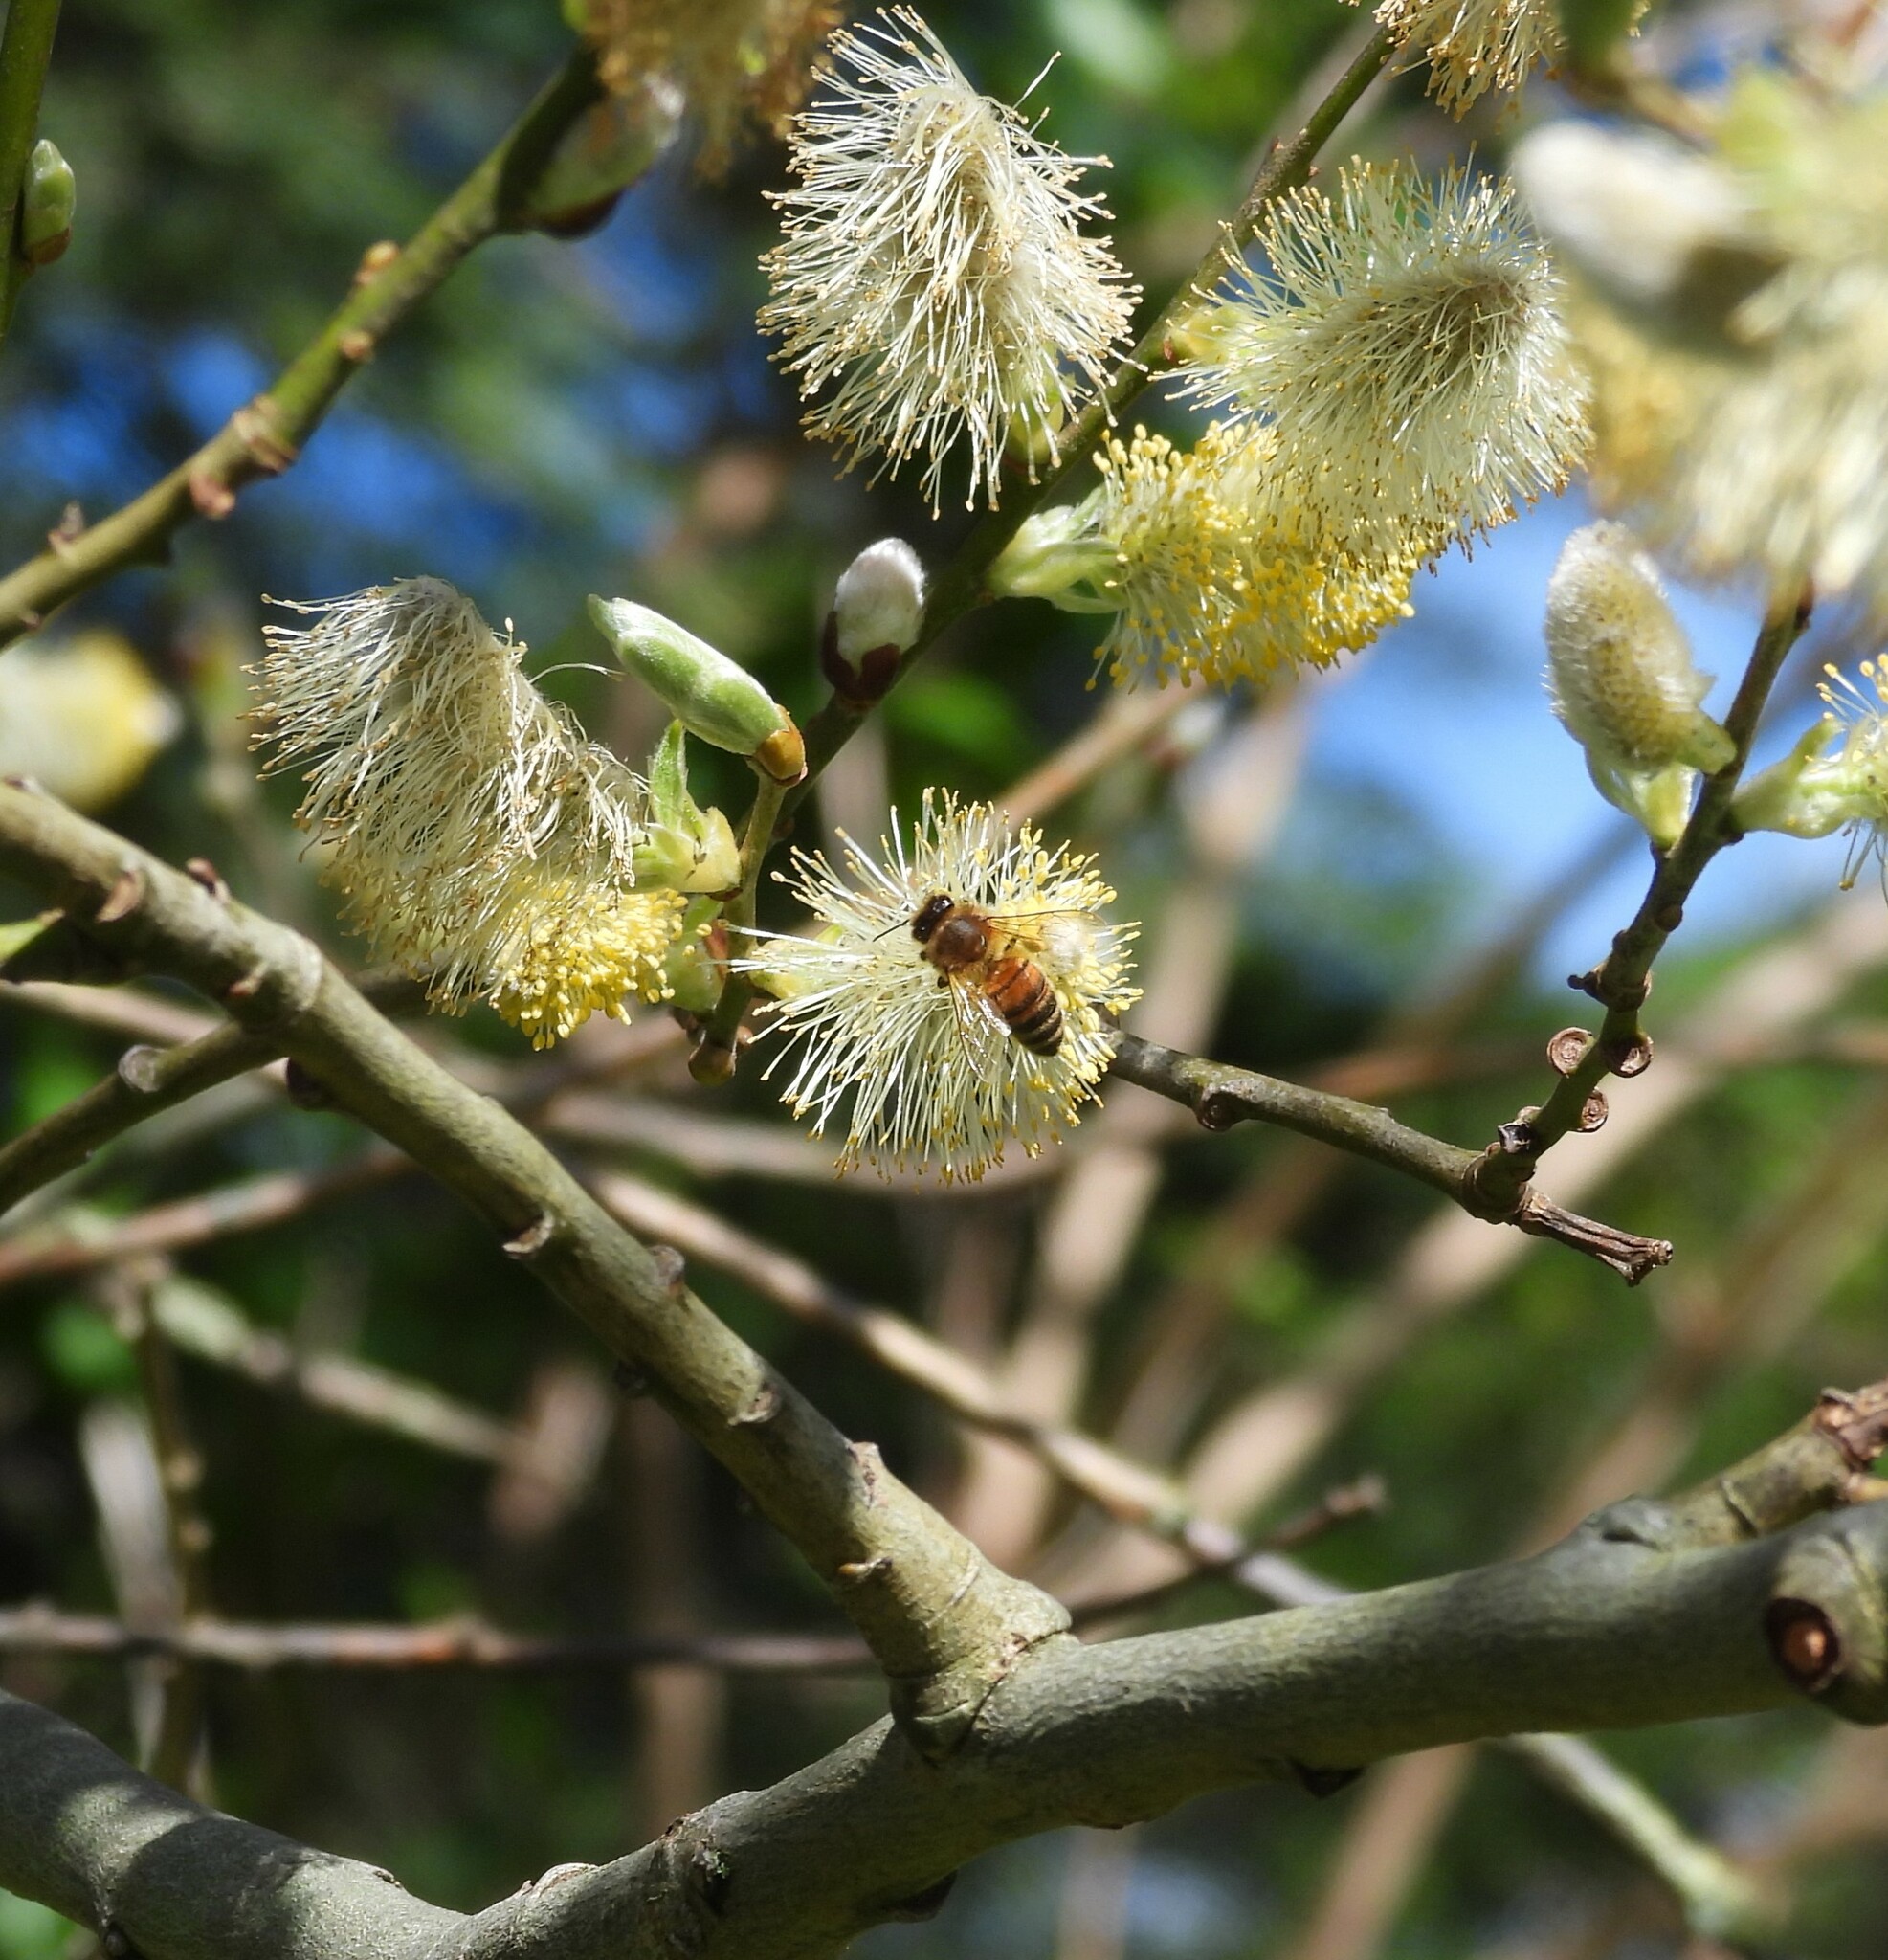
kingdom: Animalia
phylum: Arthropoda
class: Insecta
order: Hymenoptera
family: Apidae
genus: Apis
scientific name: Apis mellifera
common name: Honey bee
